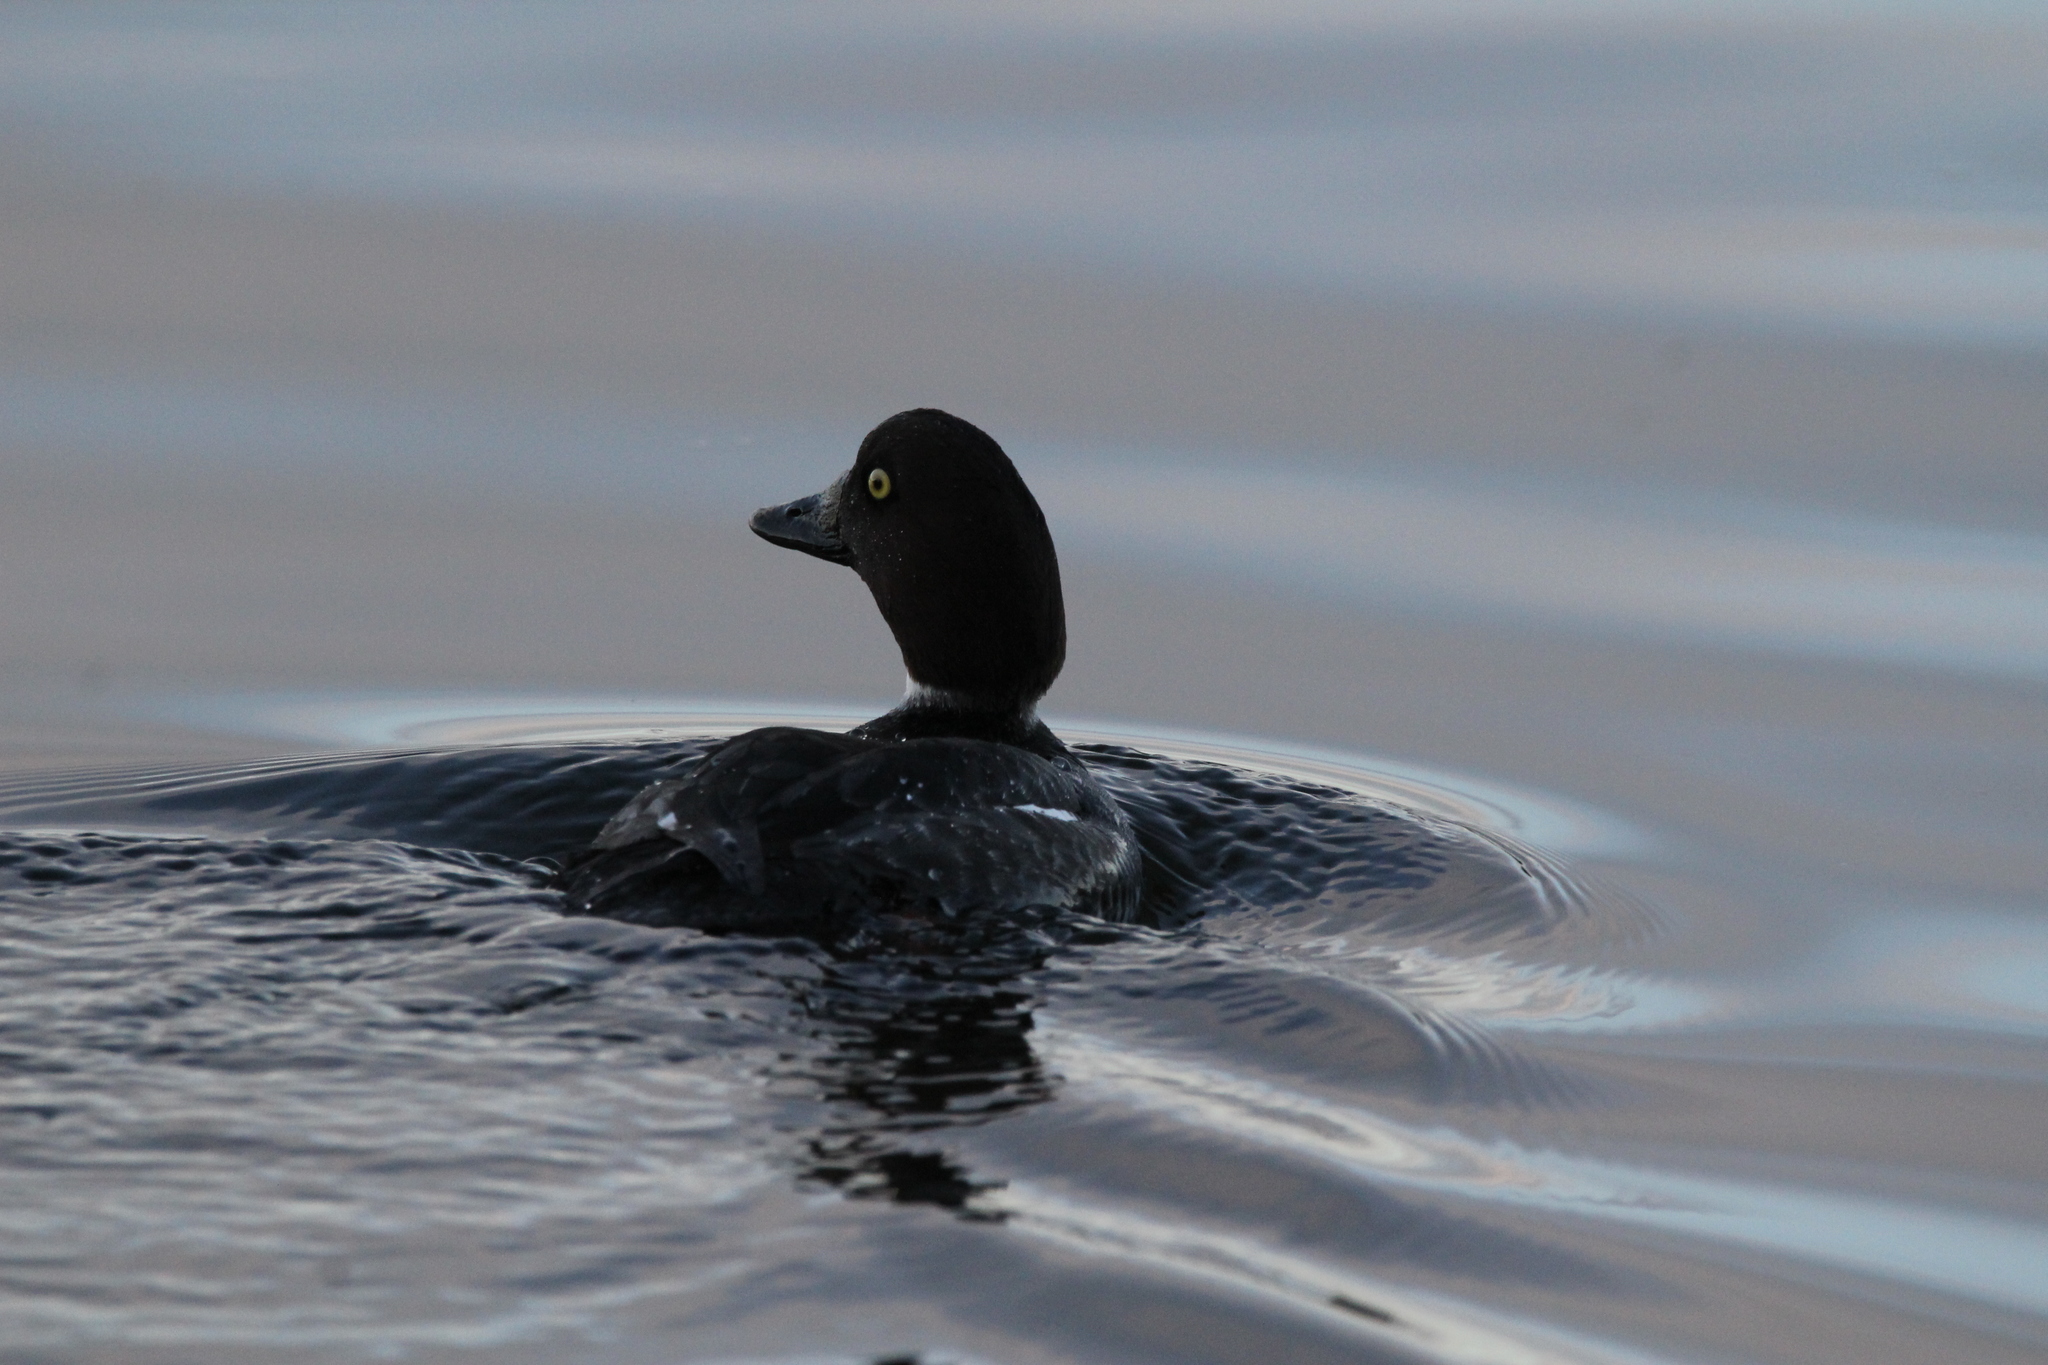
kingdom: Animalia
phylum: Chordata
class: Aves
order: Anseriformes
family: Anatidae
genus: Bucephala
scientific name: Bucephala clangula
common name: Common goldeneye
